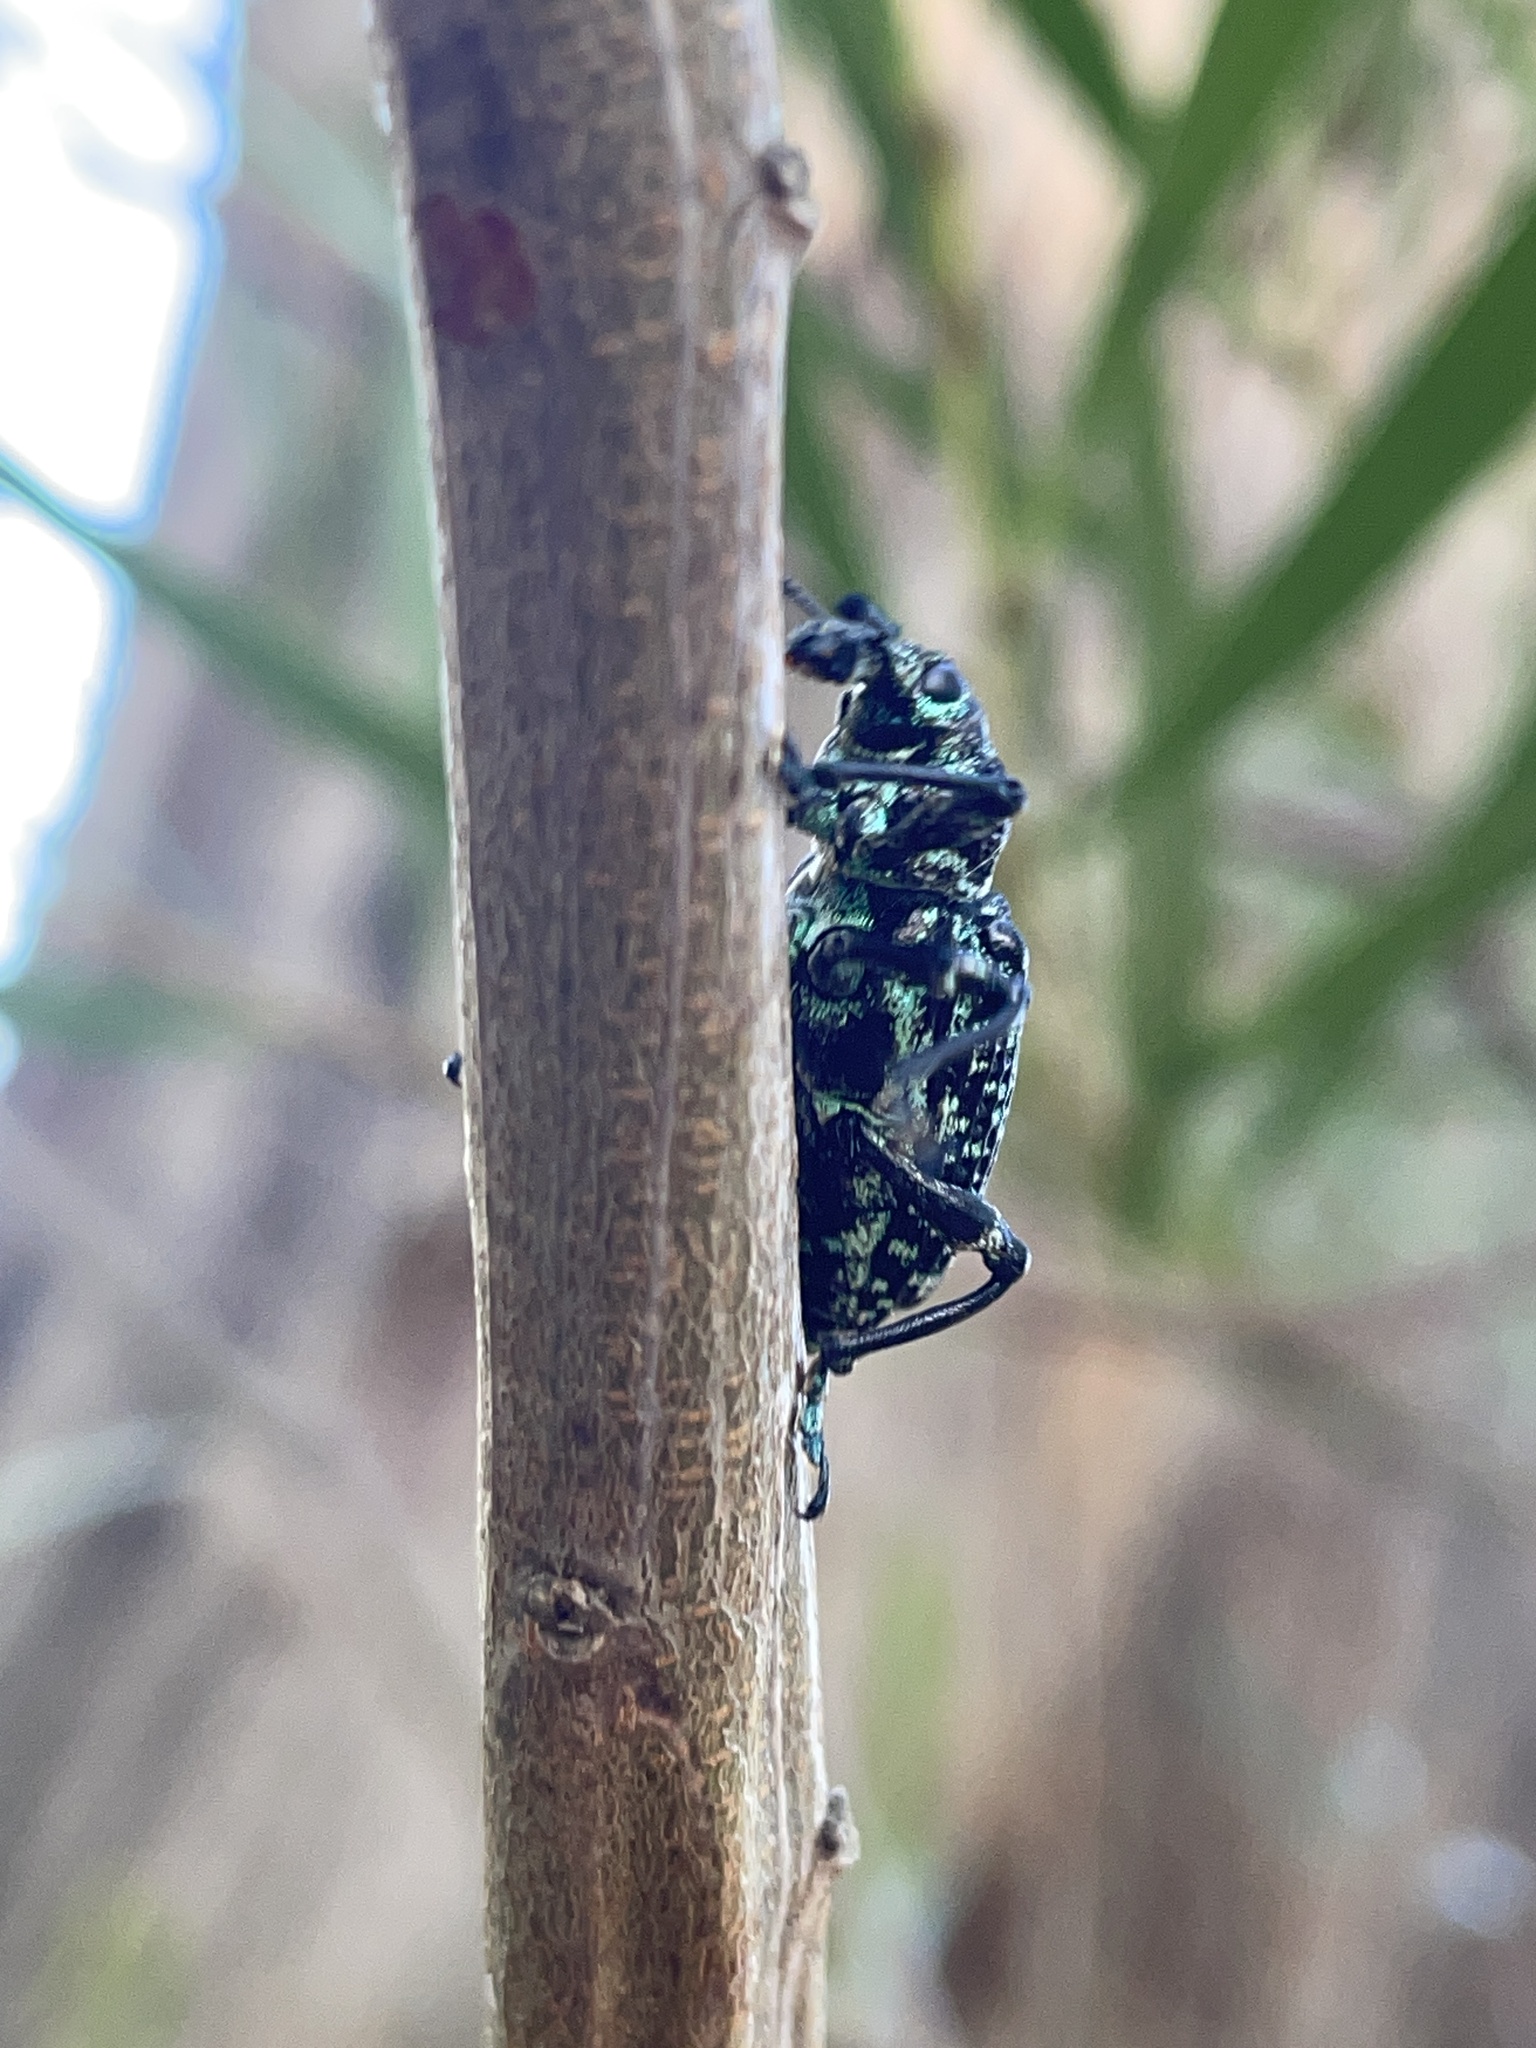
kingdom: Animalia
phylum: Arthropoda
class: Insecta
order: Coleoptera
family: Curculionidae
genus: Chrysolopus
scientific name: Chrysolopus spectabilis
